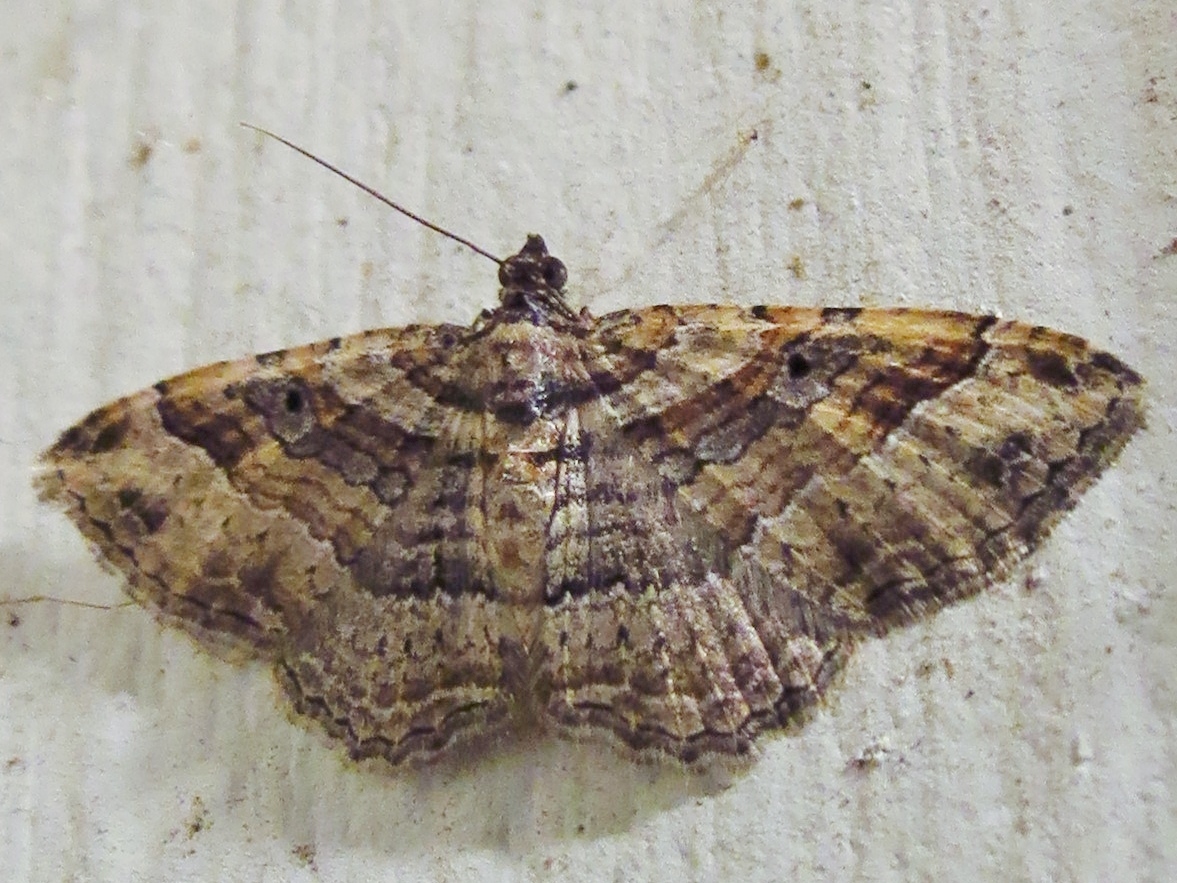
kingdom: Animalia
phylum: Arthropoda
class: Insecta
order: Lepidoptera
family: Geometridae
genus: Costaconvexa
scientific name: Costaconvexa centrostrigaria
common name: Bent-line carpet
